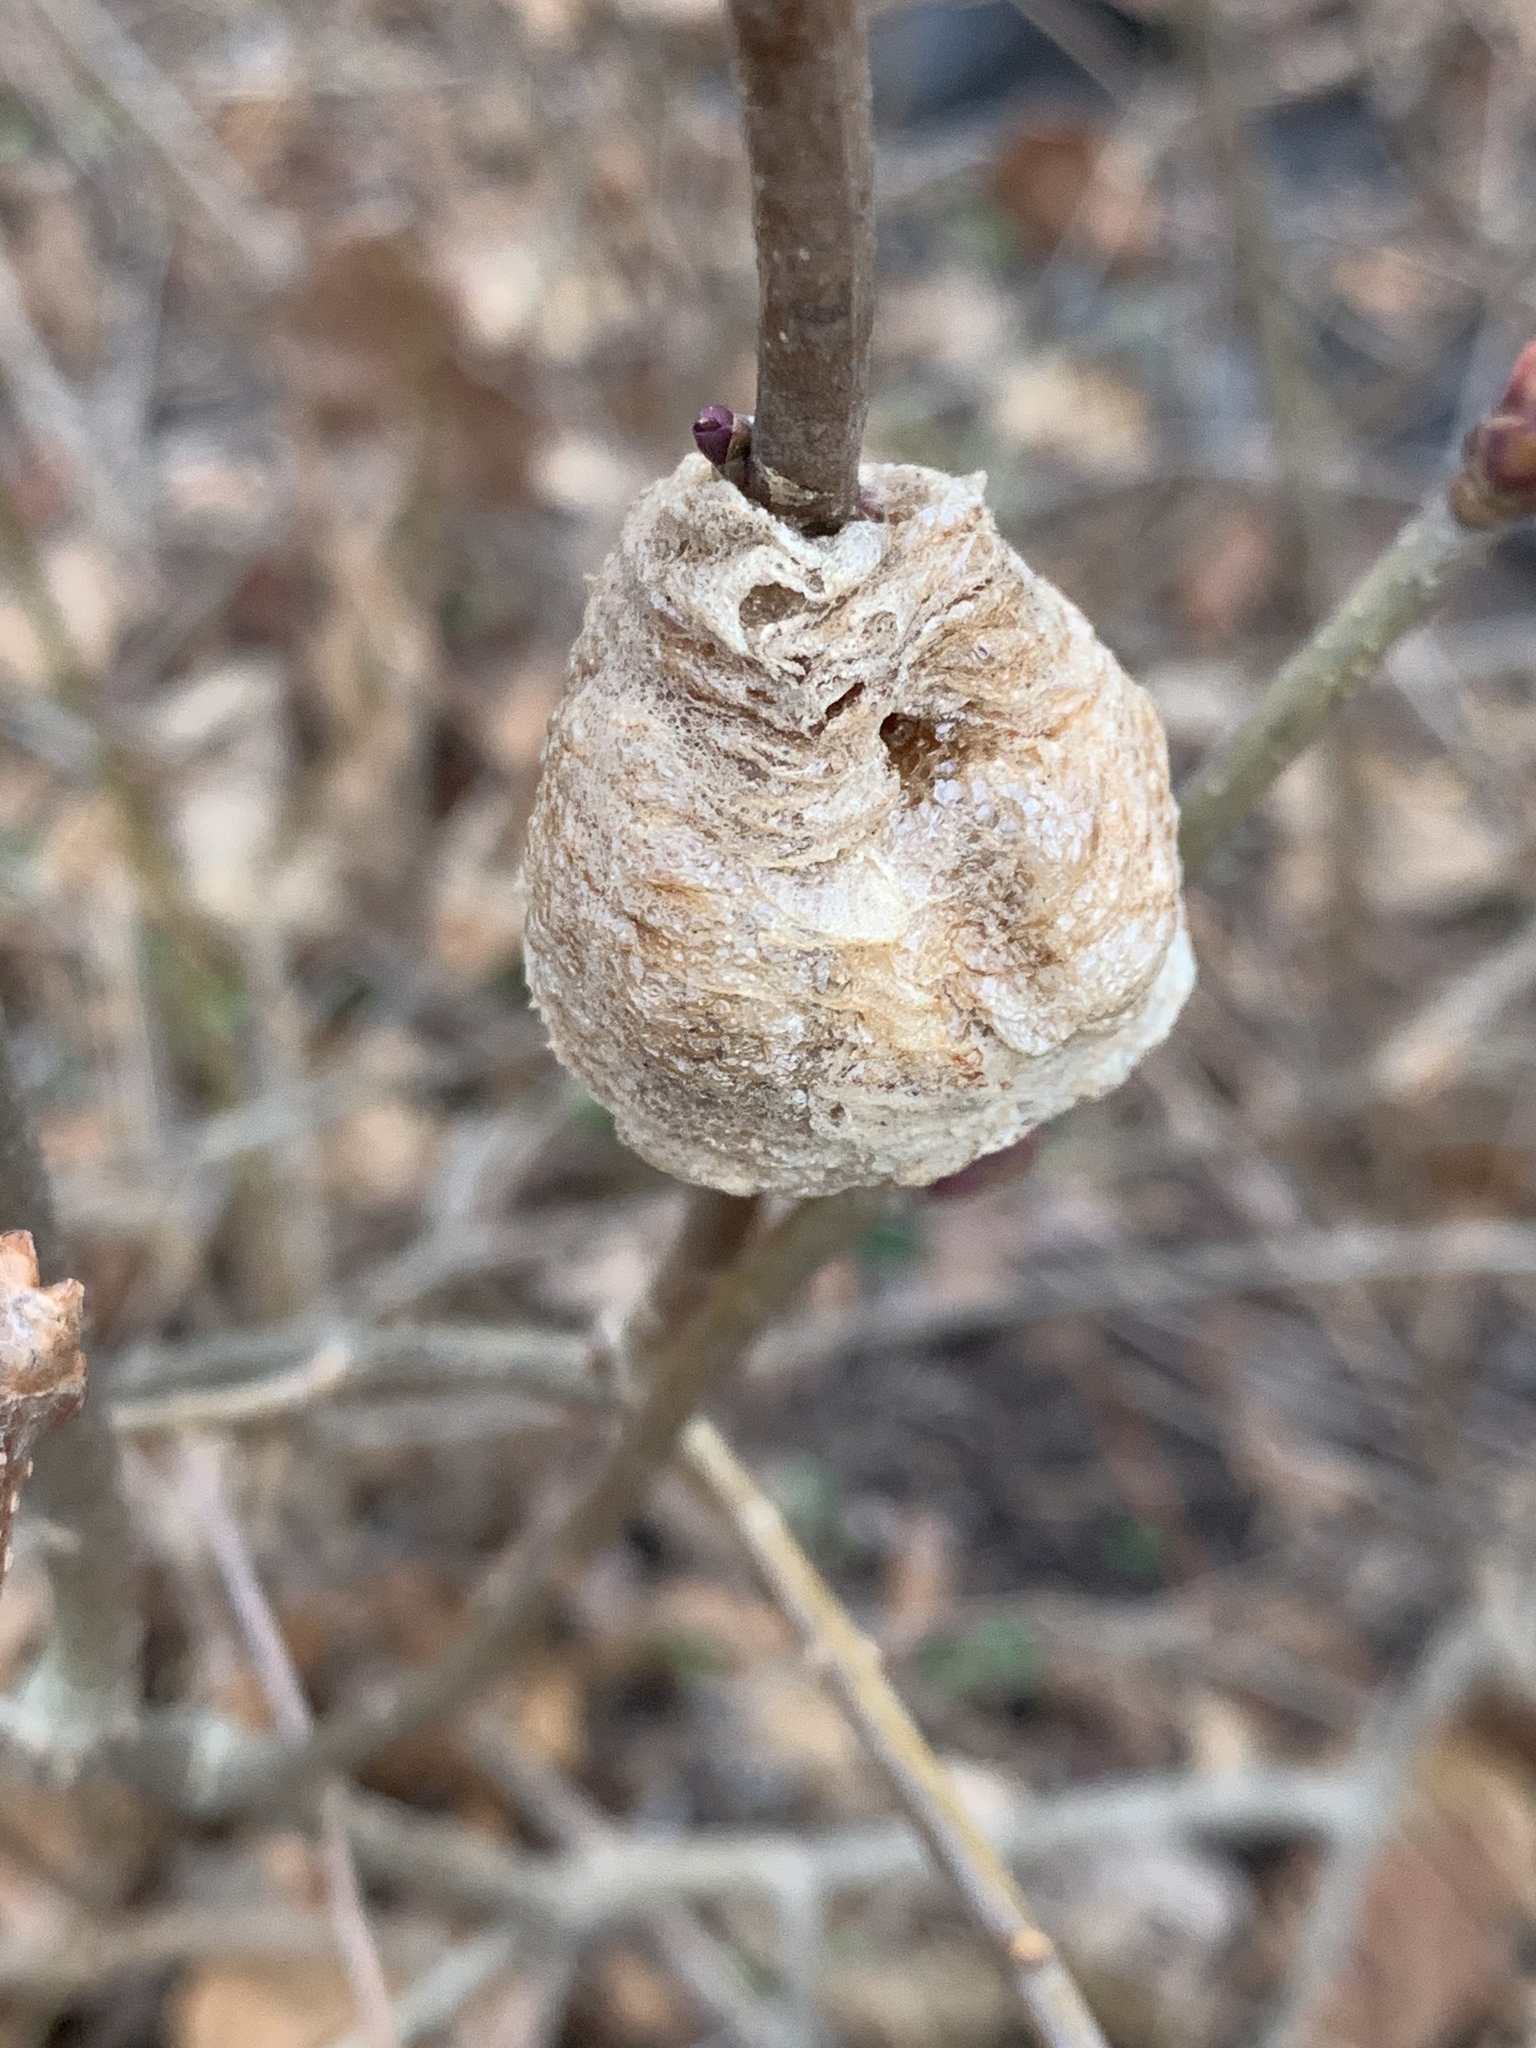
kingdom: Animalia
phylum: Arthropoda
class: Insecta
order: Mantodea
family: Mantidae
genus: Tenodera
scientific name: Tenodera sinensis
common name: Chinese mantis
